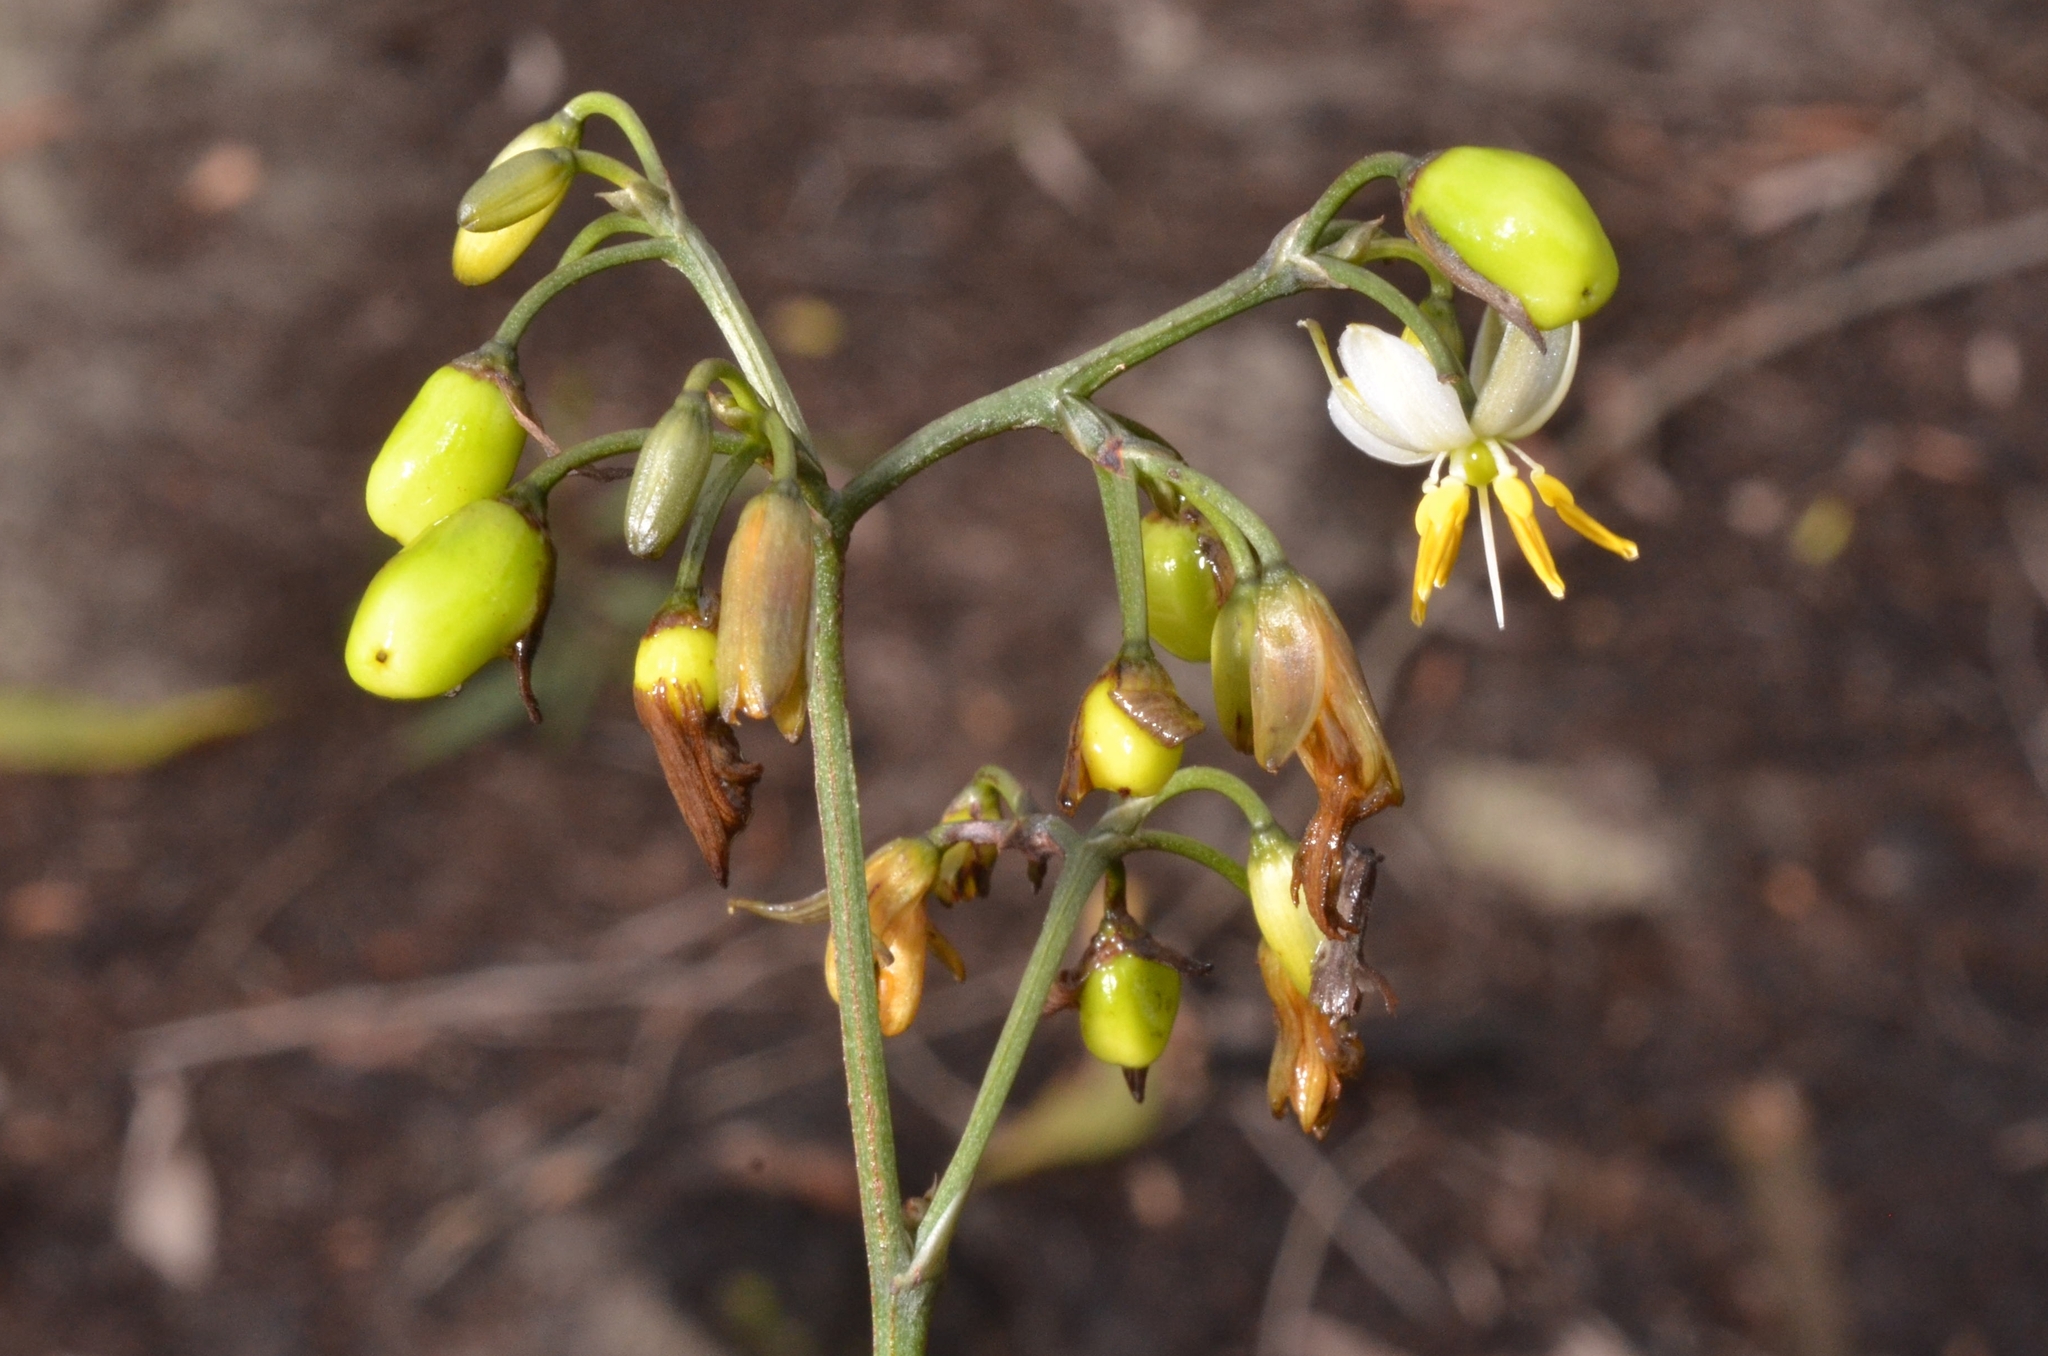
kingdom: Plantae
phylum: Tracheophyta
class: Liliopsida
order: Asparagales
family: Asphodelaceae
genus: Dianella
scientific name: Dianella ensifolia
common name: New zealand lilyplant
